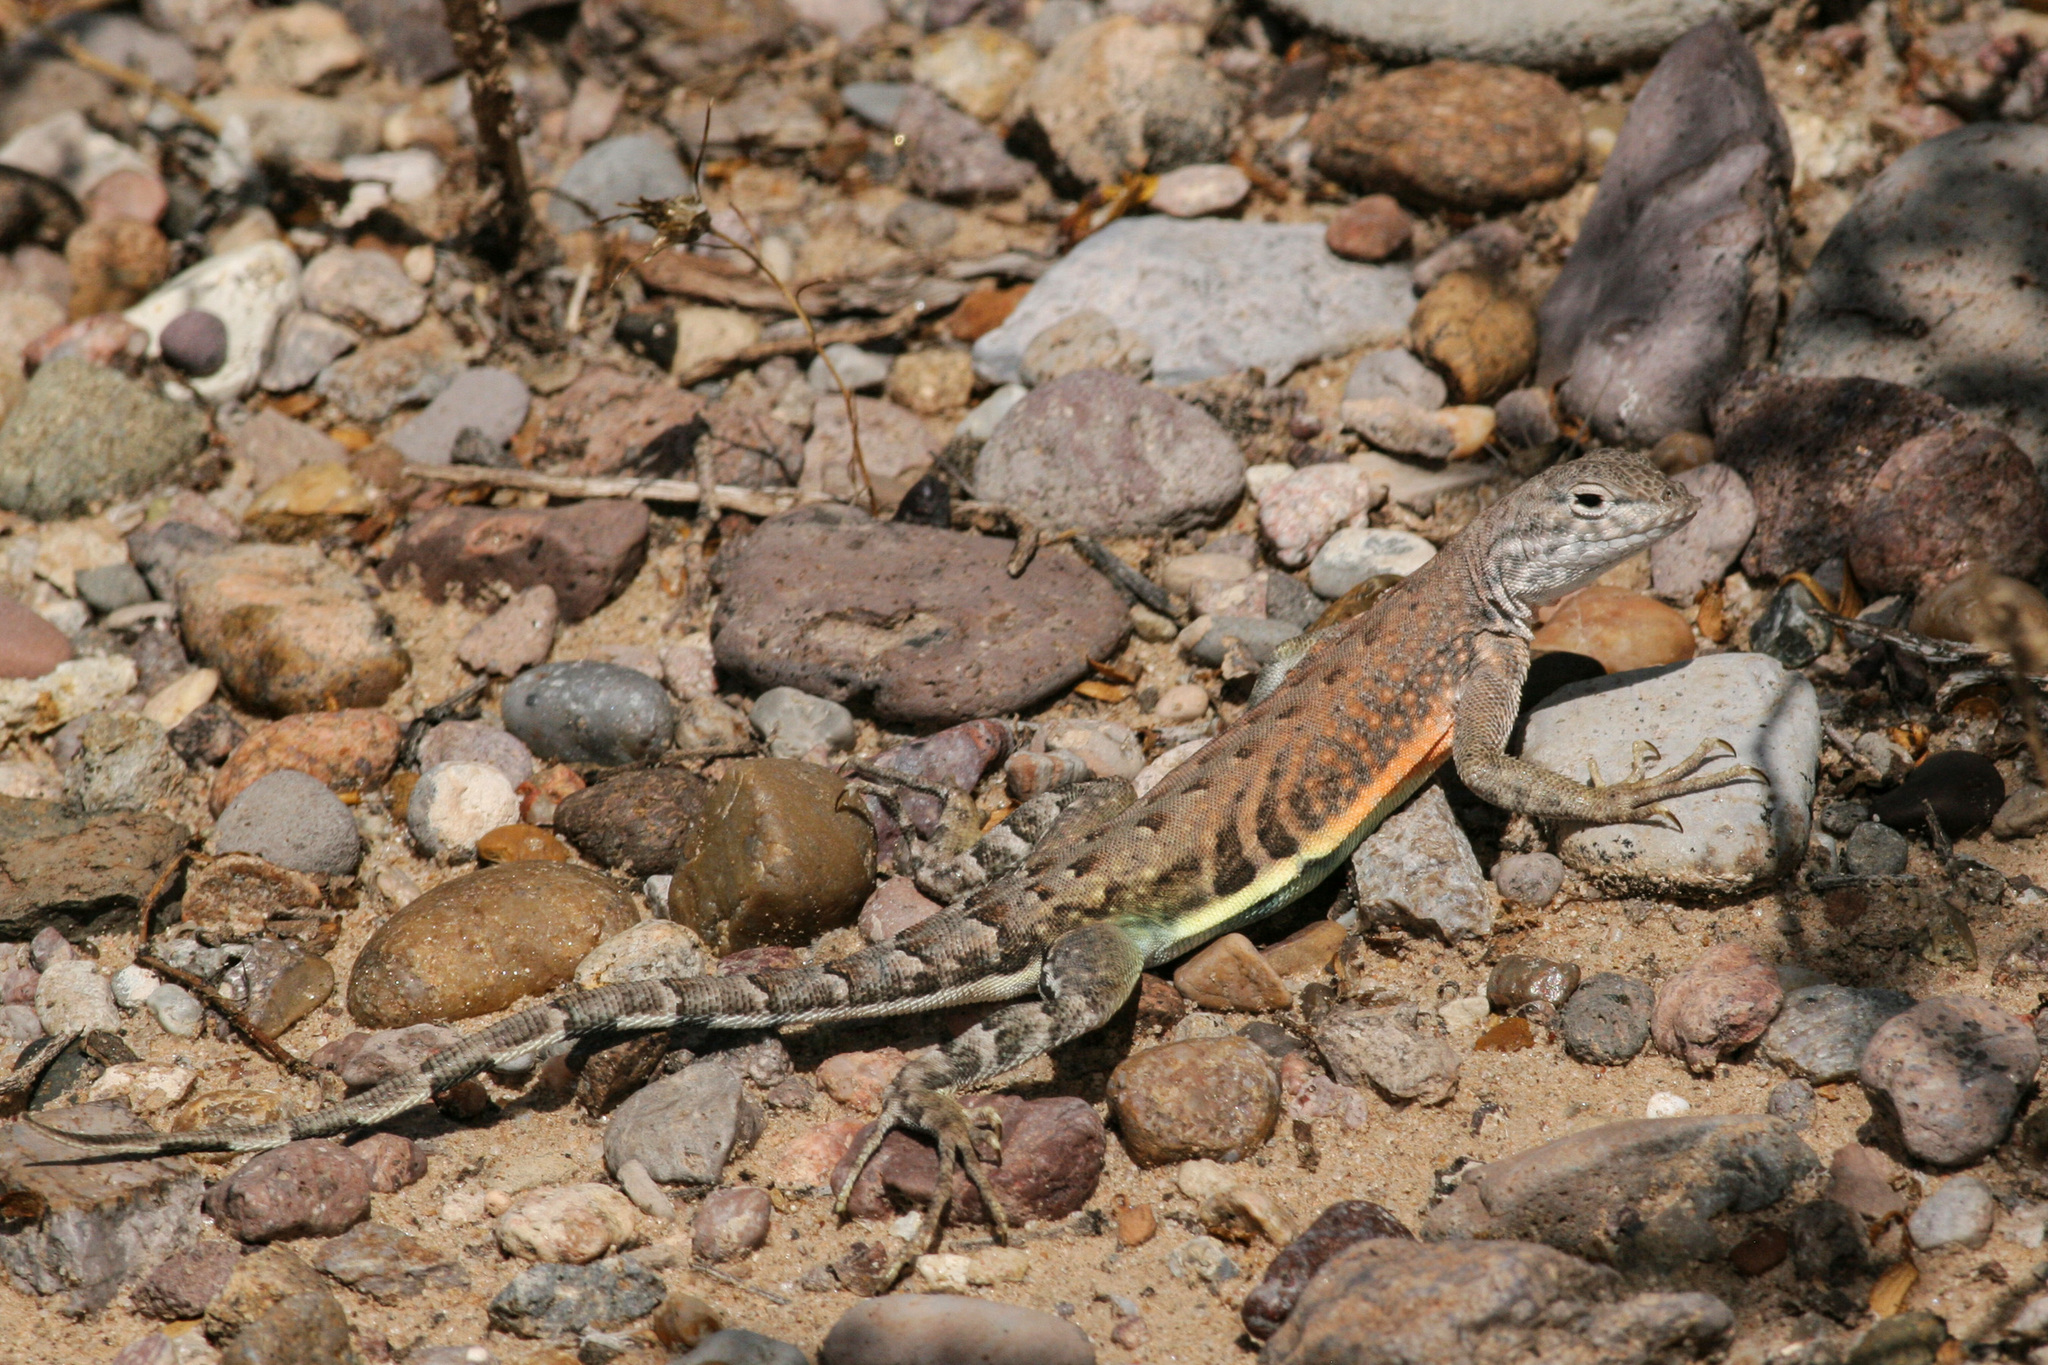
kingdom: Animalia
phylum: Chordata
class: Squamata
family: Phrynosomatidae
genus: Cophosaurus
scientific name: Cophosaurus texanus
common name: Greater earless lizard
